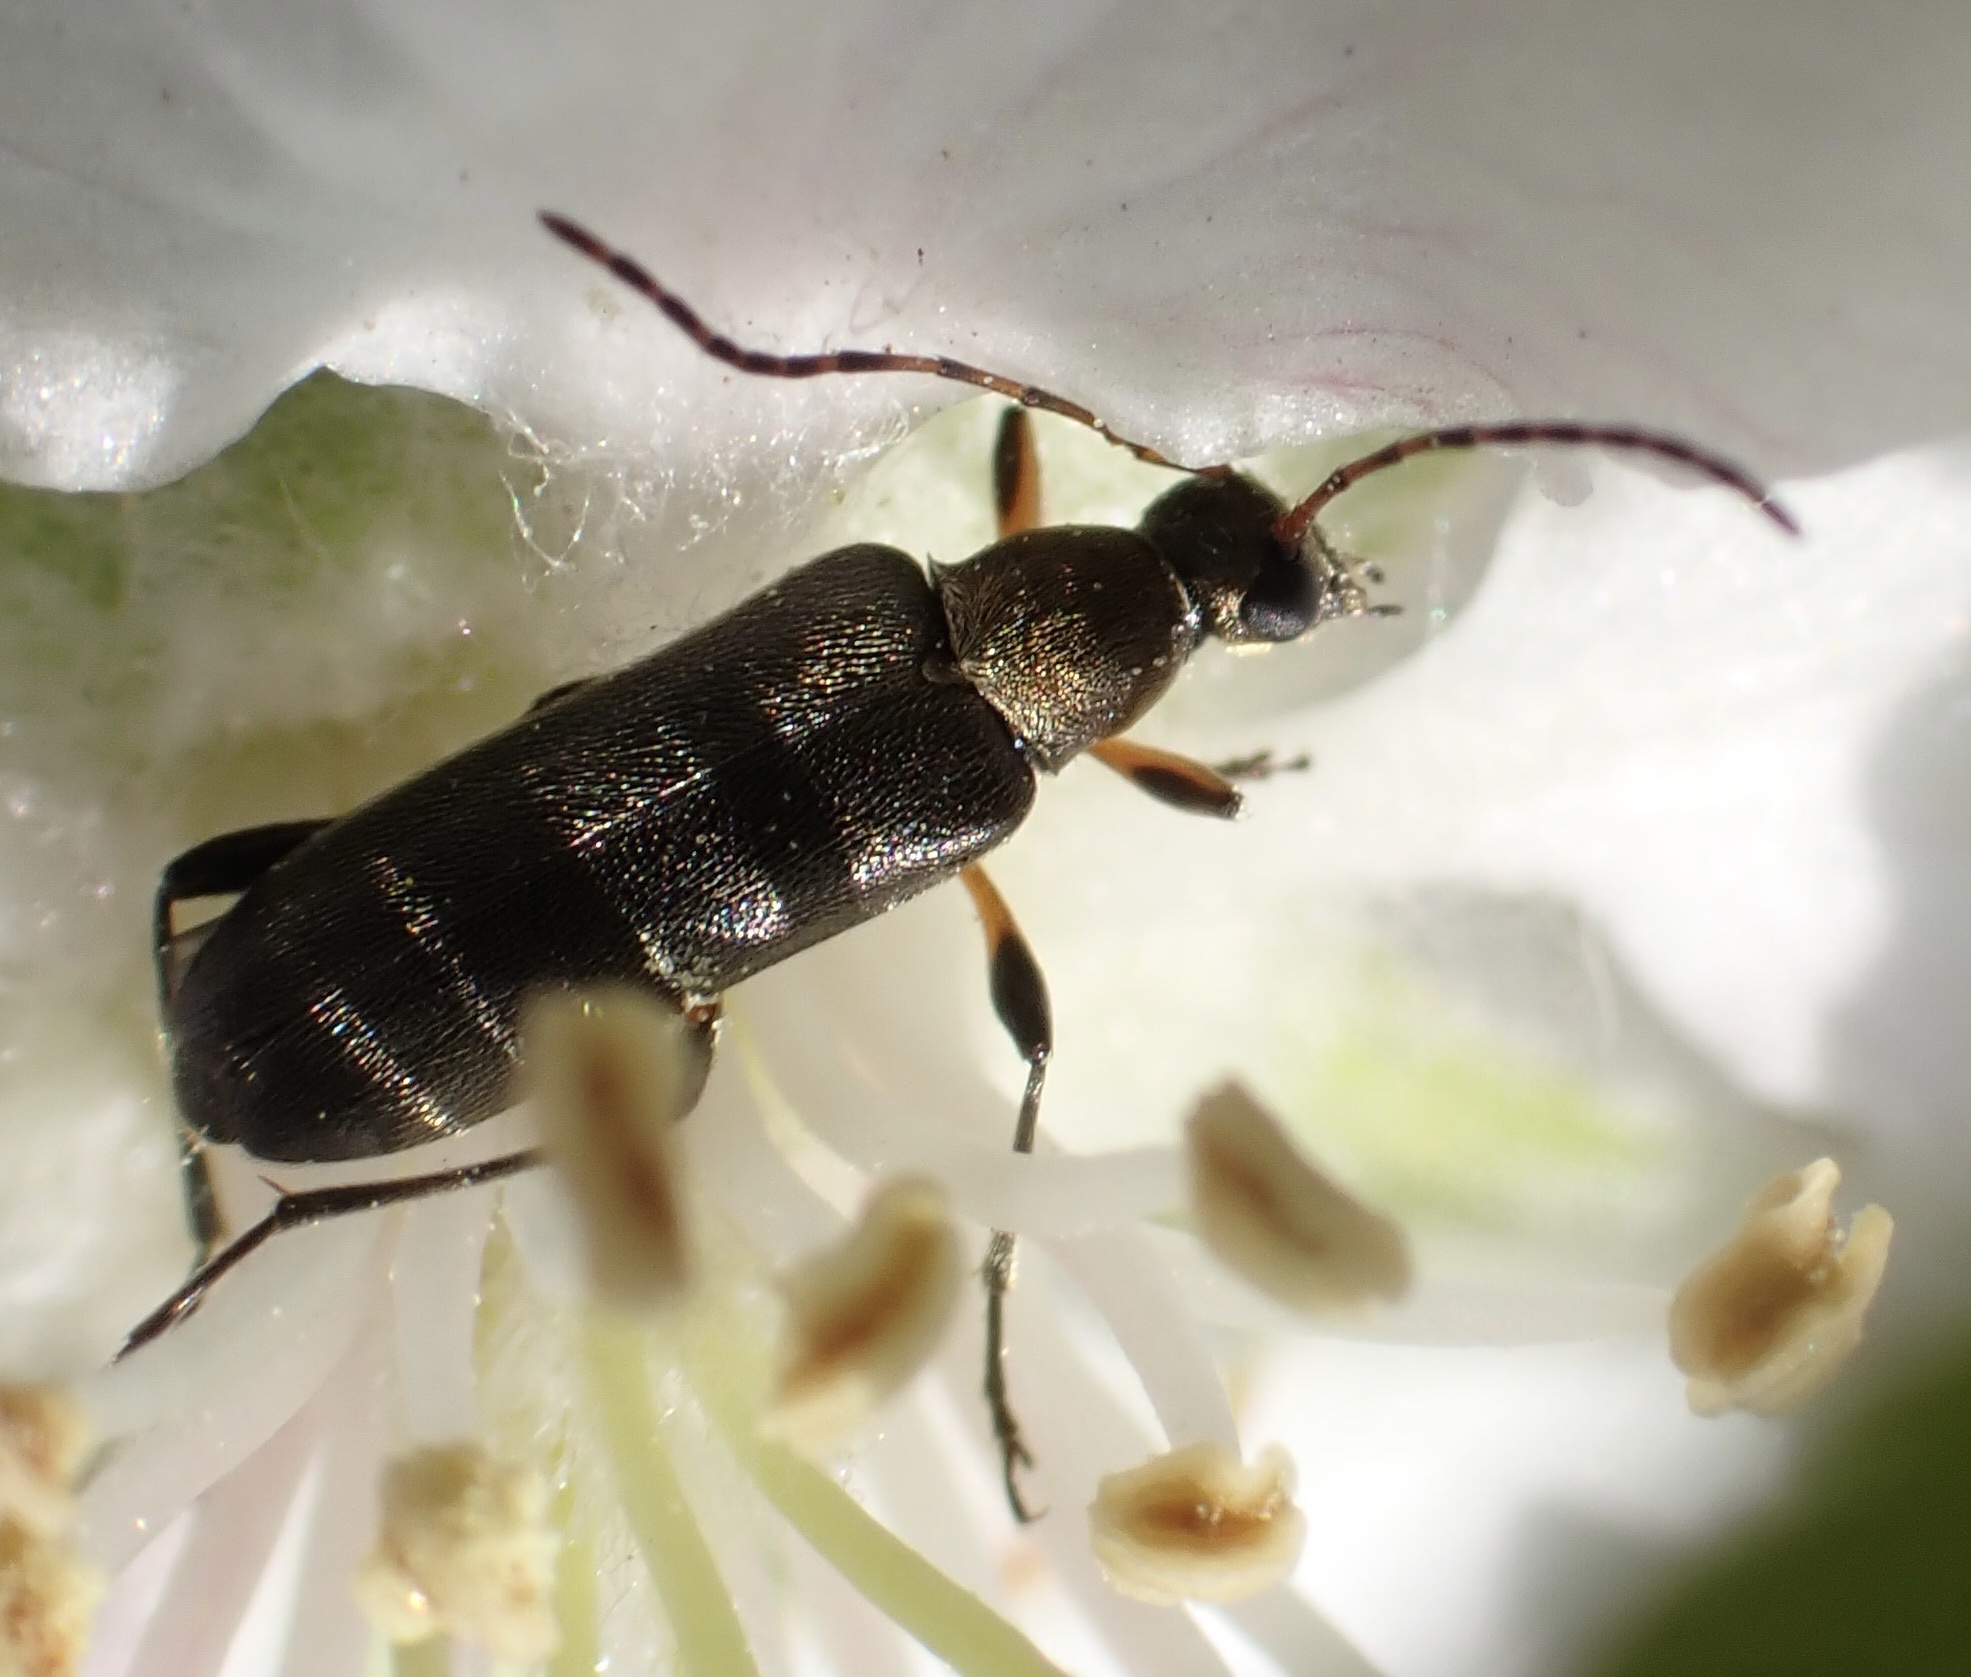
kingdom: Animalia
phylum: Arthropoda
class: Insecta
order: Coleoptera
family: Cerambycidae
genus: Grammoptera
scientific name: Grammoptera ruficornis
